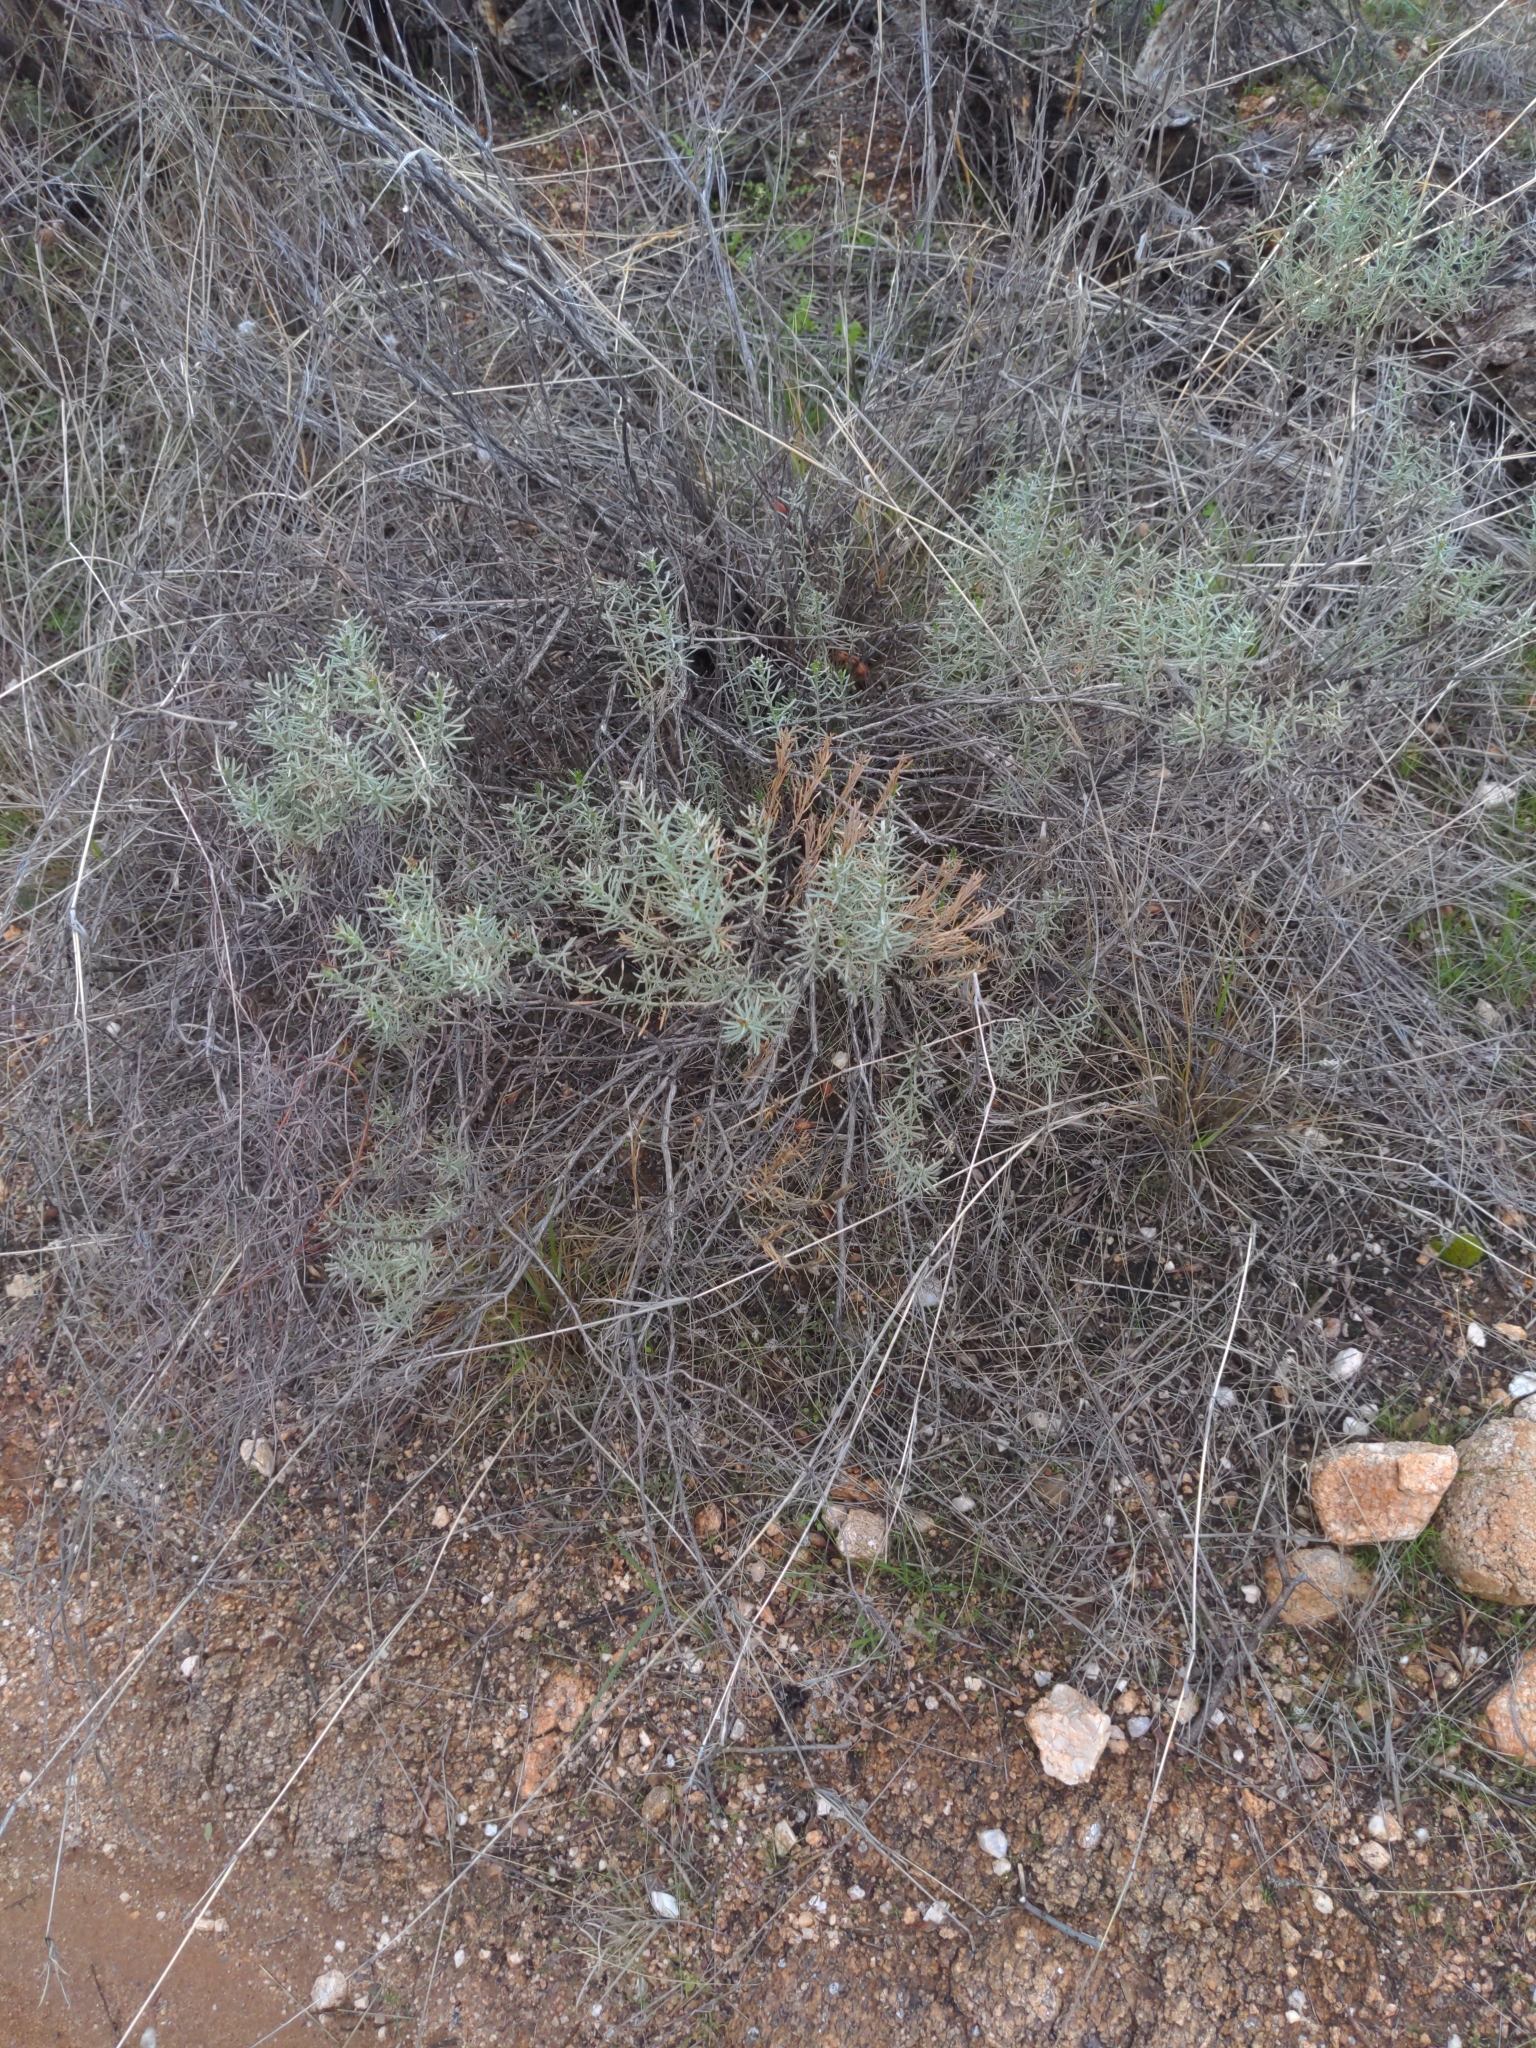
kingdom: Plantae
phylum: Tracheophyta
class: Magnoliopsida
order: Asterales
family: Asteraceae
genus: Ericameria
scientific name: Ericameria laricifolia
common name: Turpentine-bush
